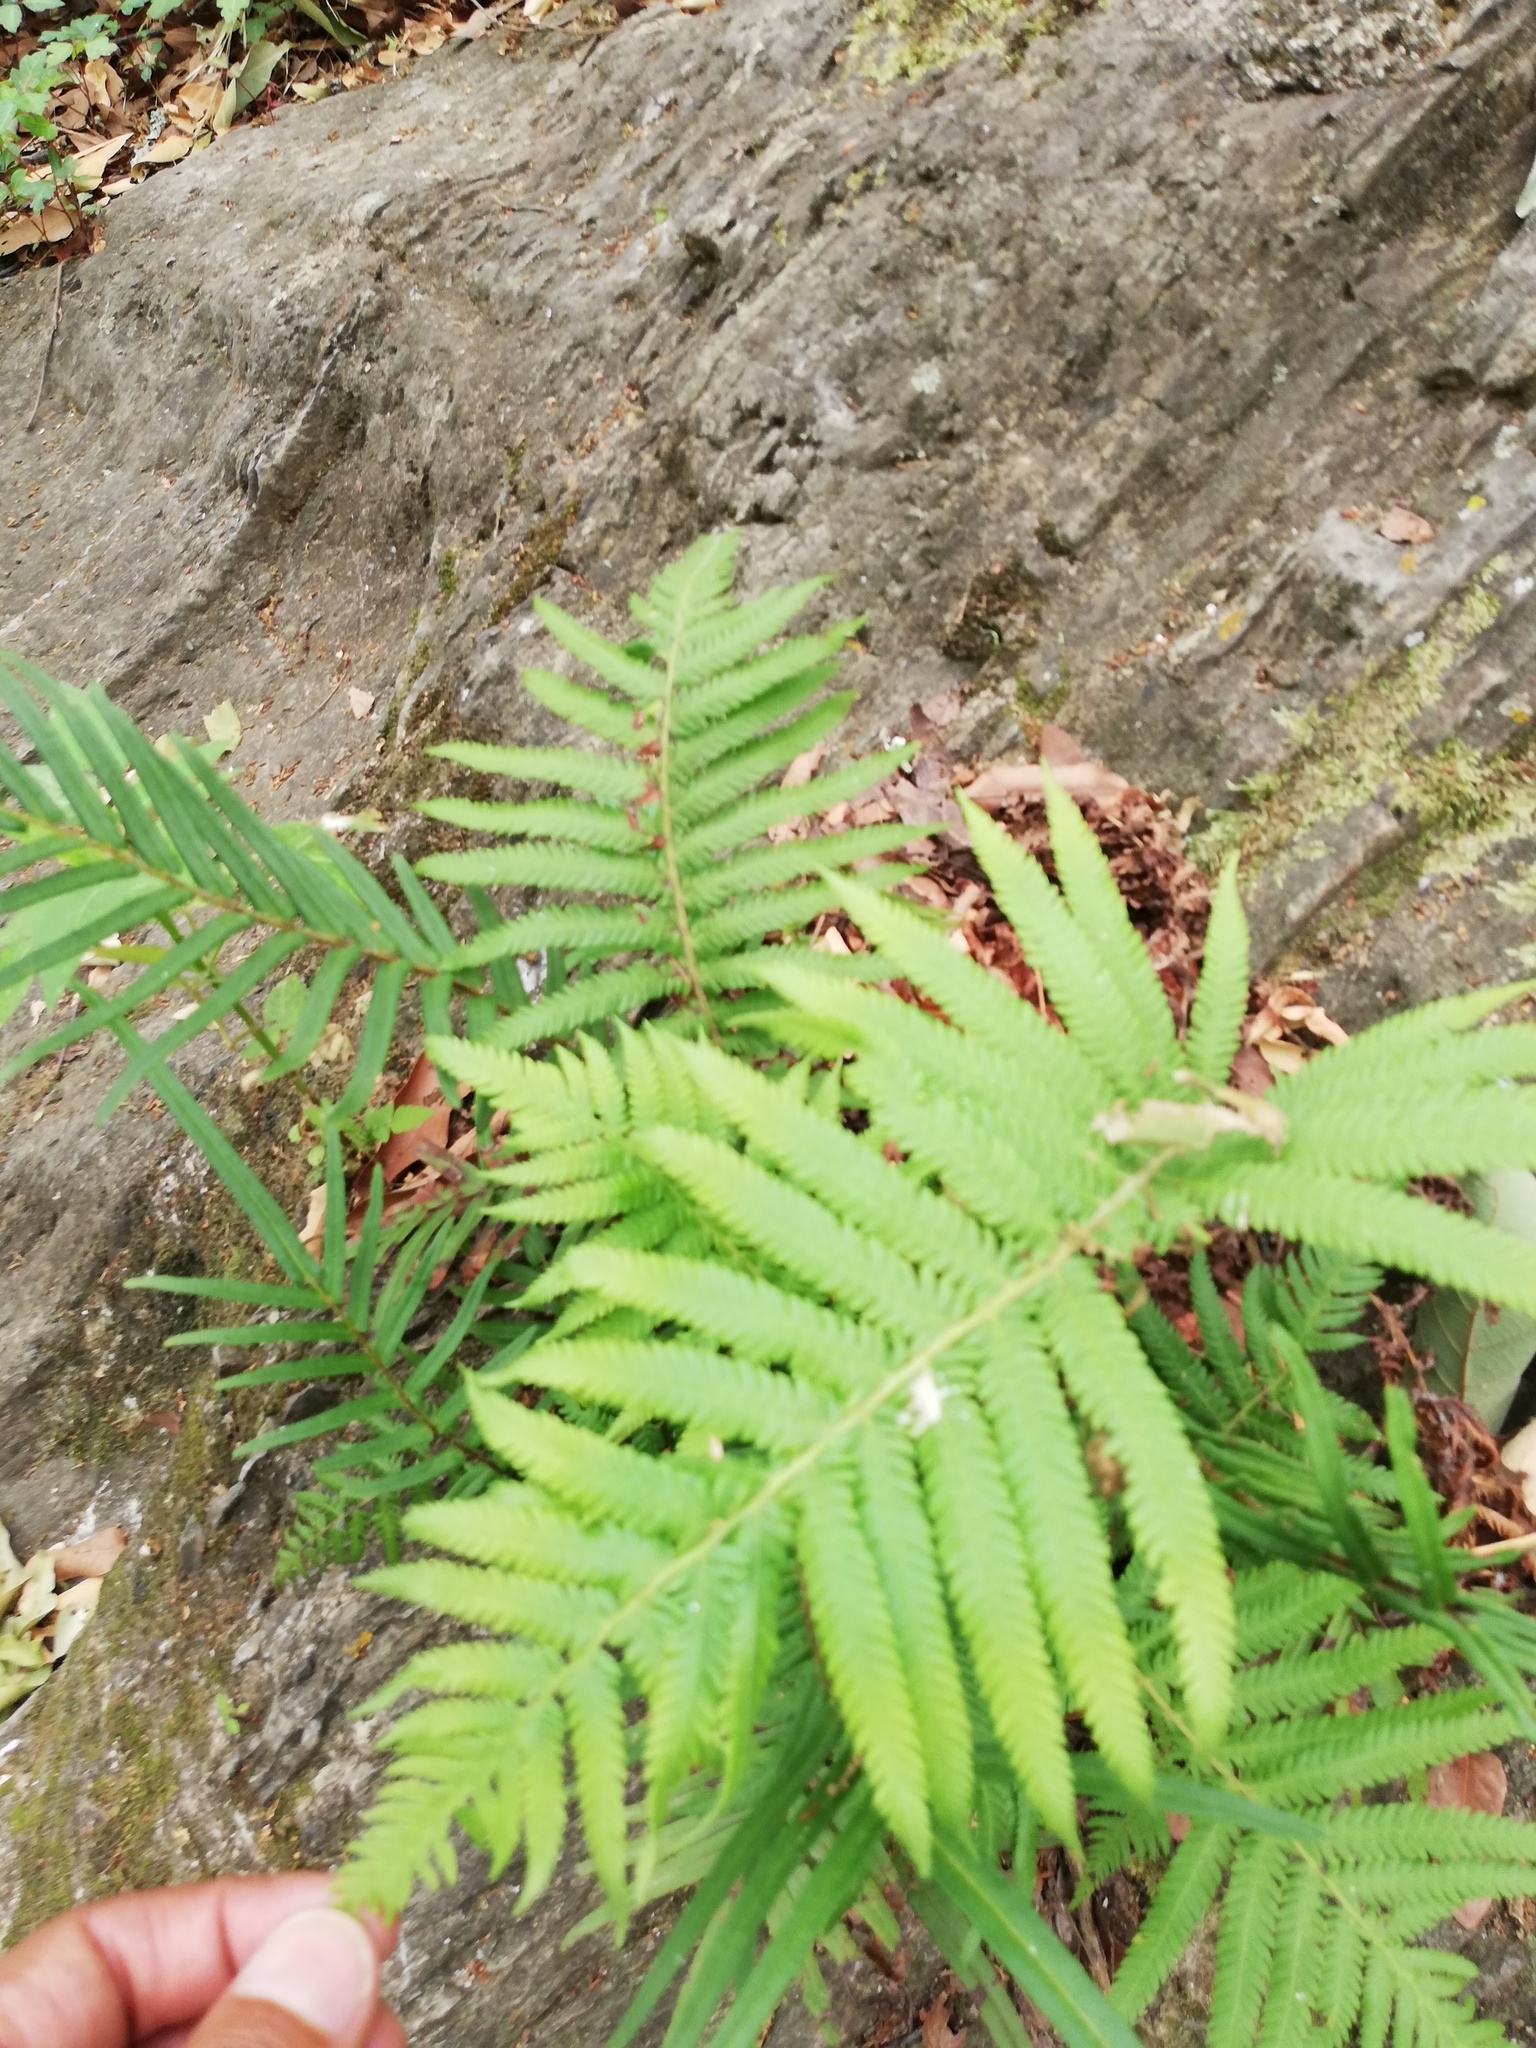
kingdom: Plantae
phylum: Tracheophyta
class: Polypodiopsida
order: Polypodiales
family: Thelypteridaceae
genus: Pelazoneuron
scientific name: Pelazoneuron puberulum
